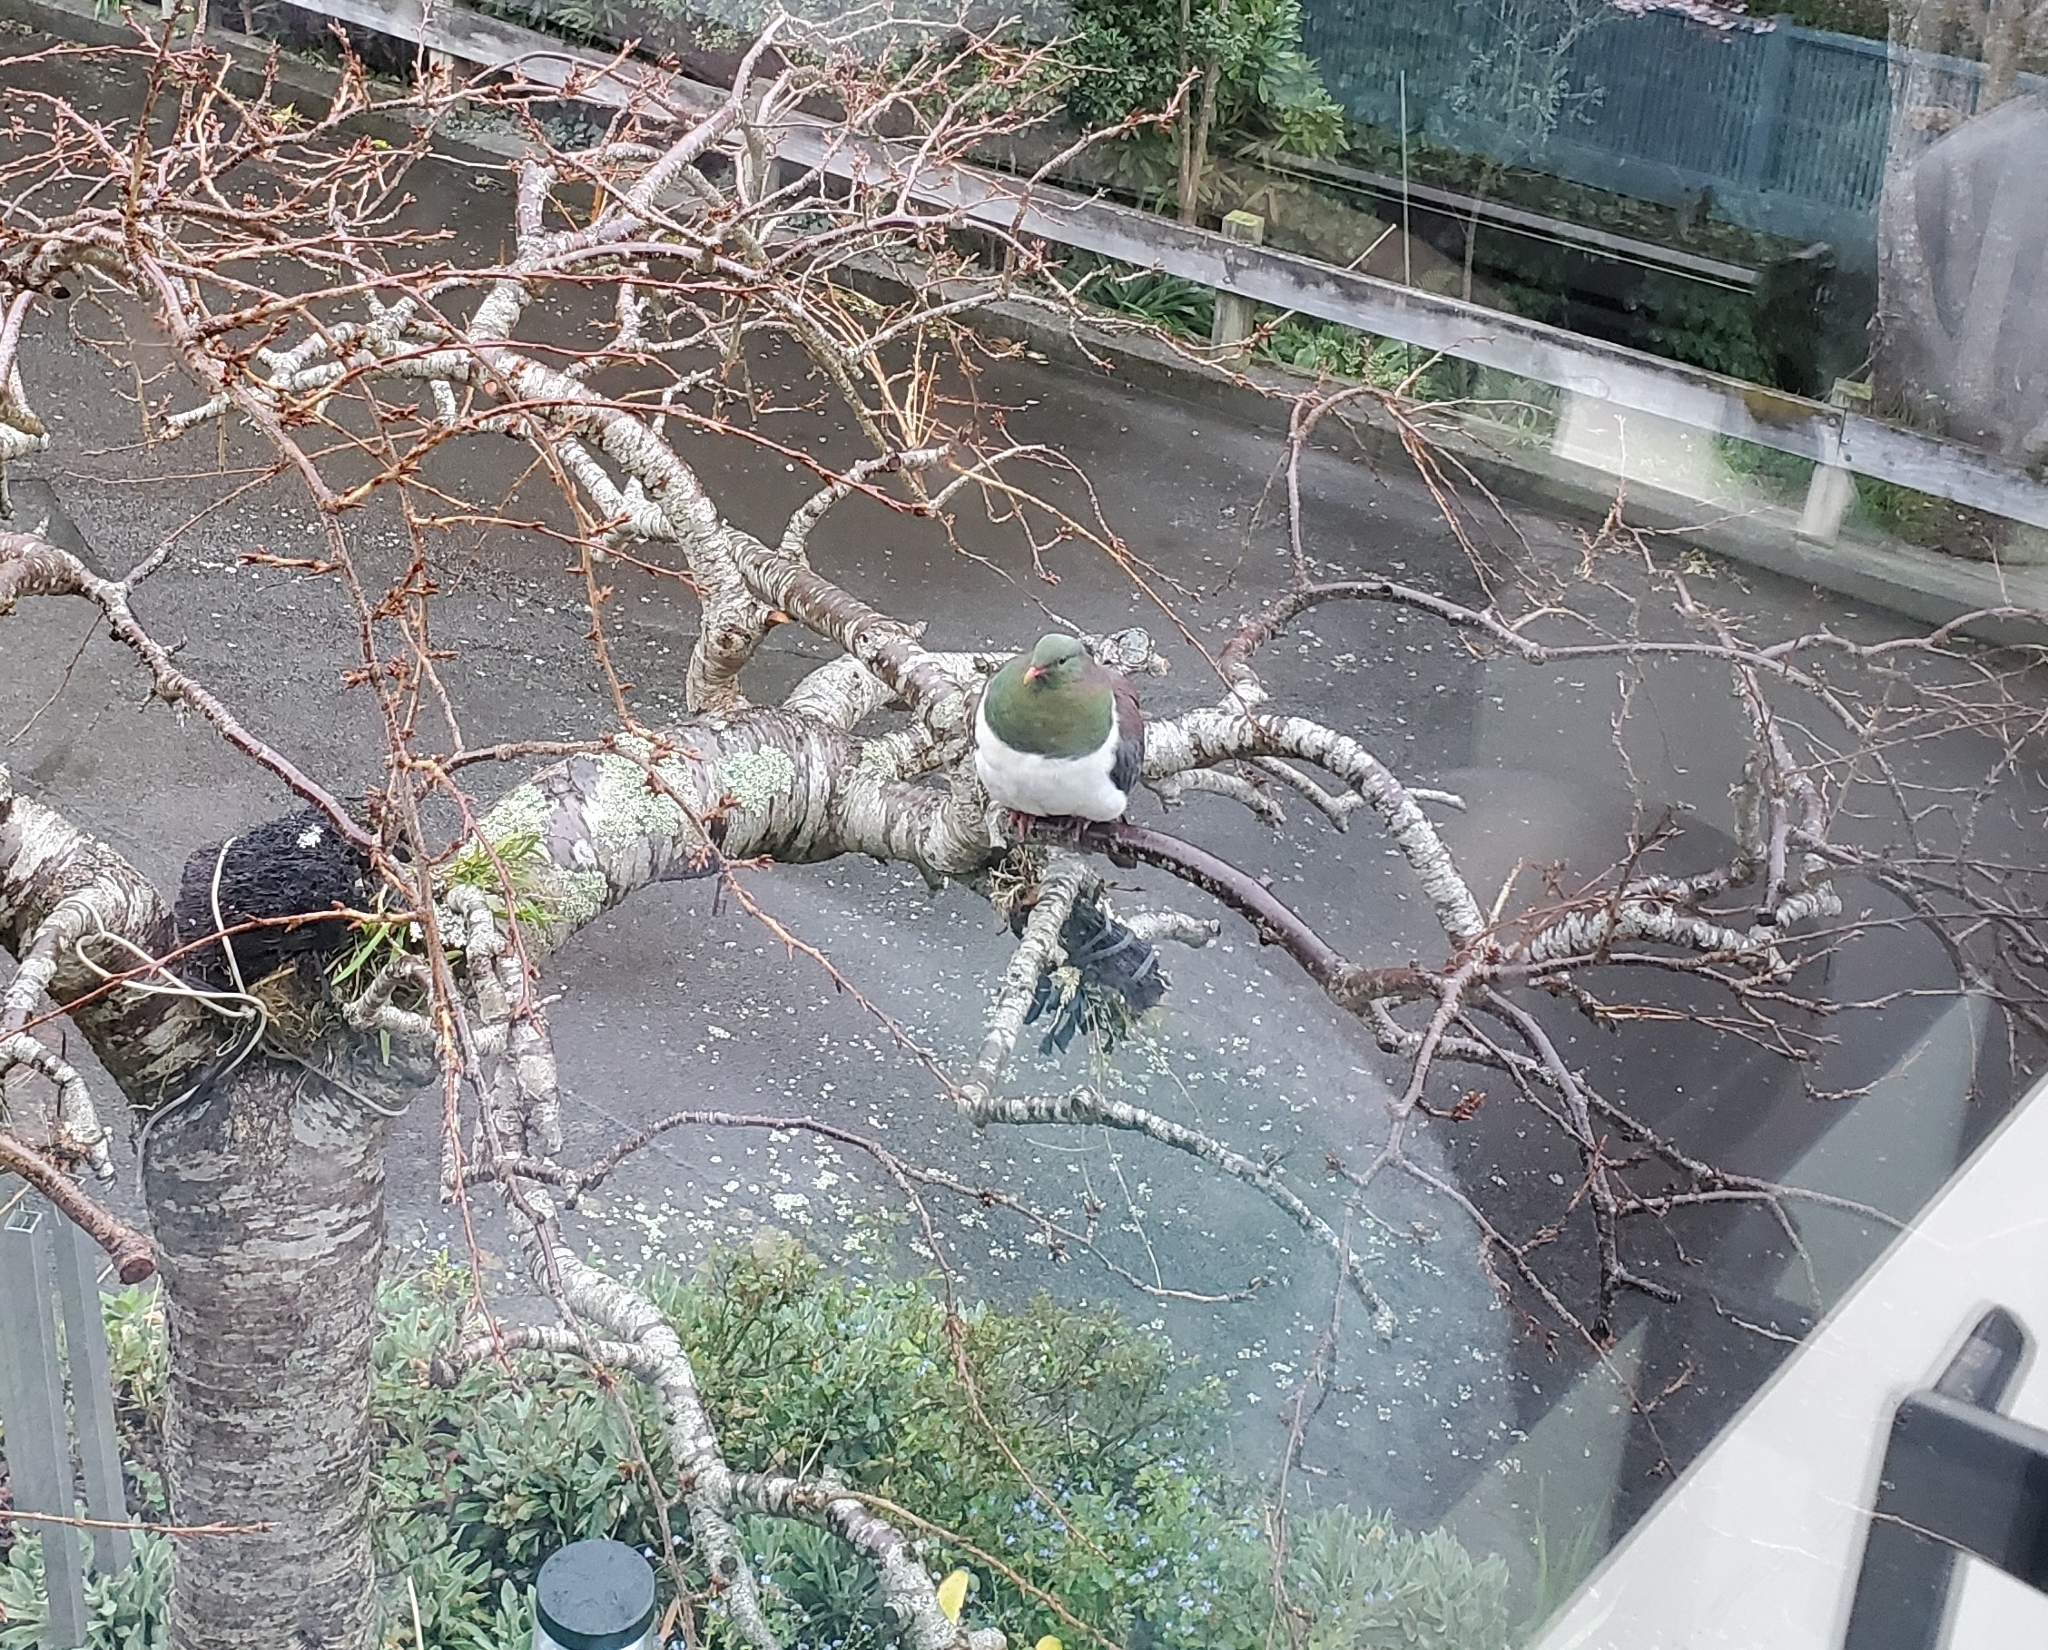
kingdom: Animalia
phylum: Chordata
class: Aves
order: Columbiformes
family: Columbidae
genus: Hemiphaga
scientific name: Hemiphaga novaeseelandiae
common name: New zealand pigeon
